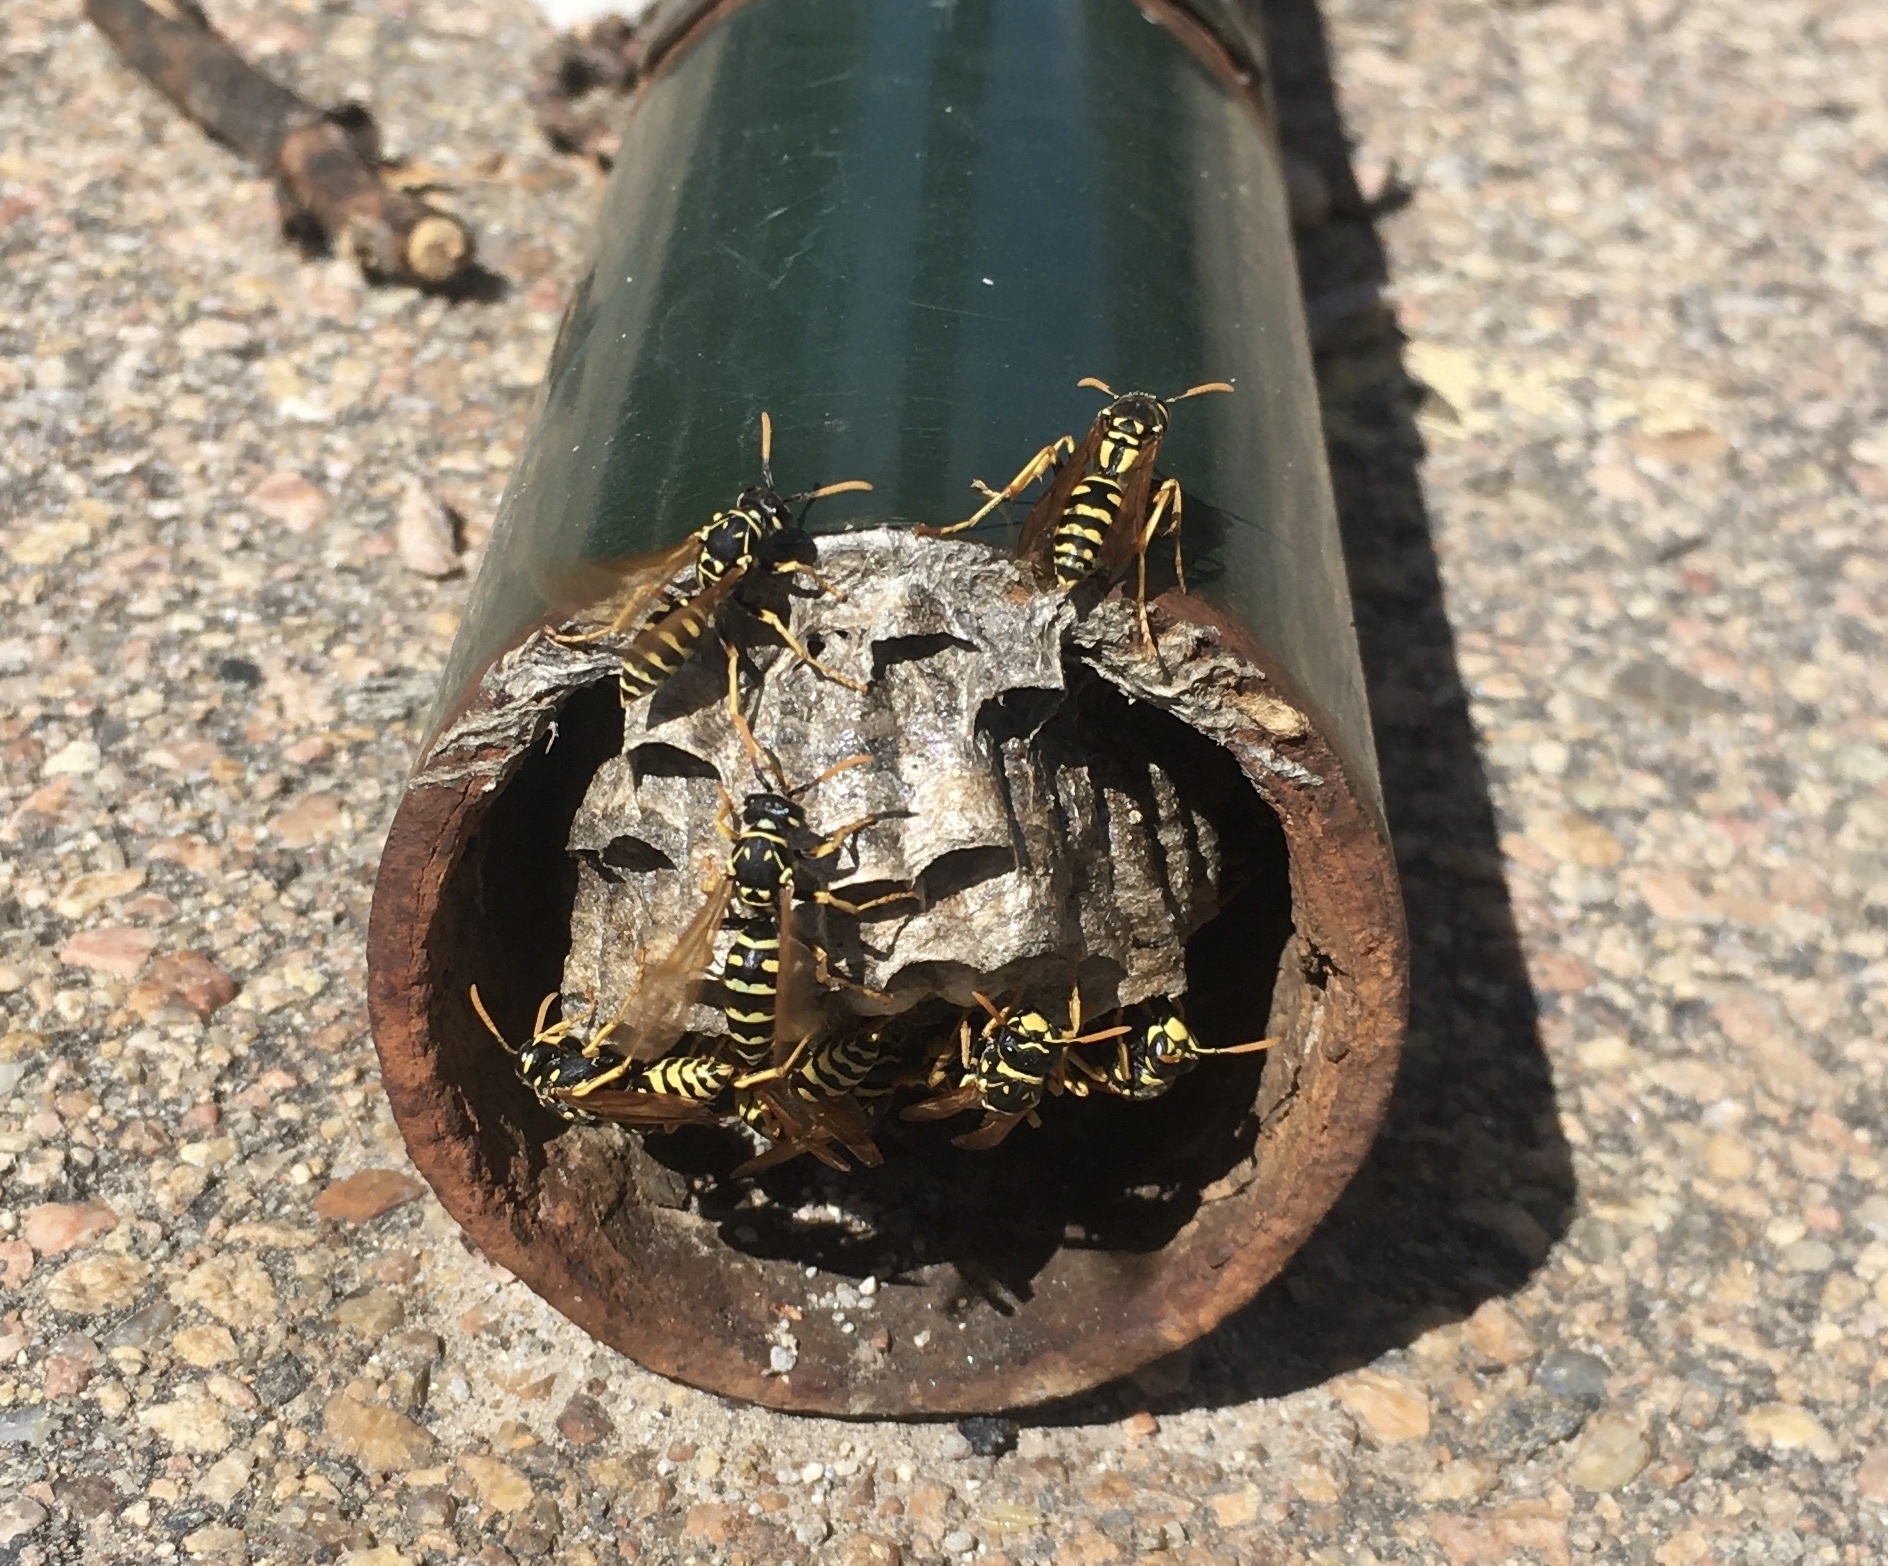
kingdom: Animalia
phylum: Arthropoda
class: Insecta
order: Hymenoptera
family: Eumenidae
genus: Polistes
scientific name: Polistes dominula
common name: Paper wasp
